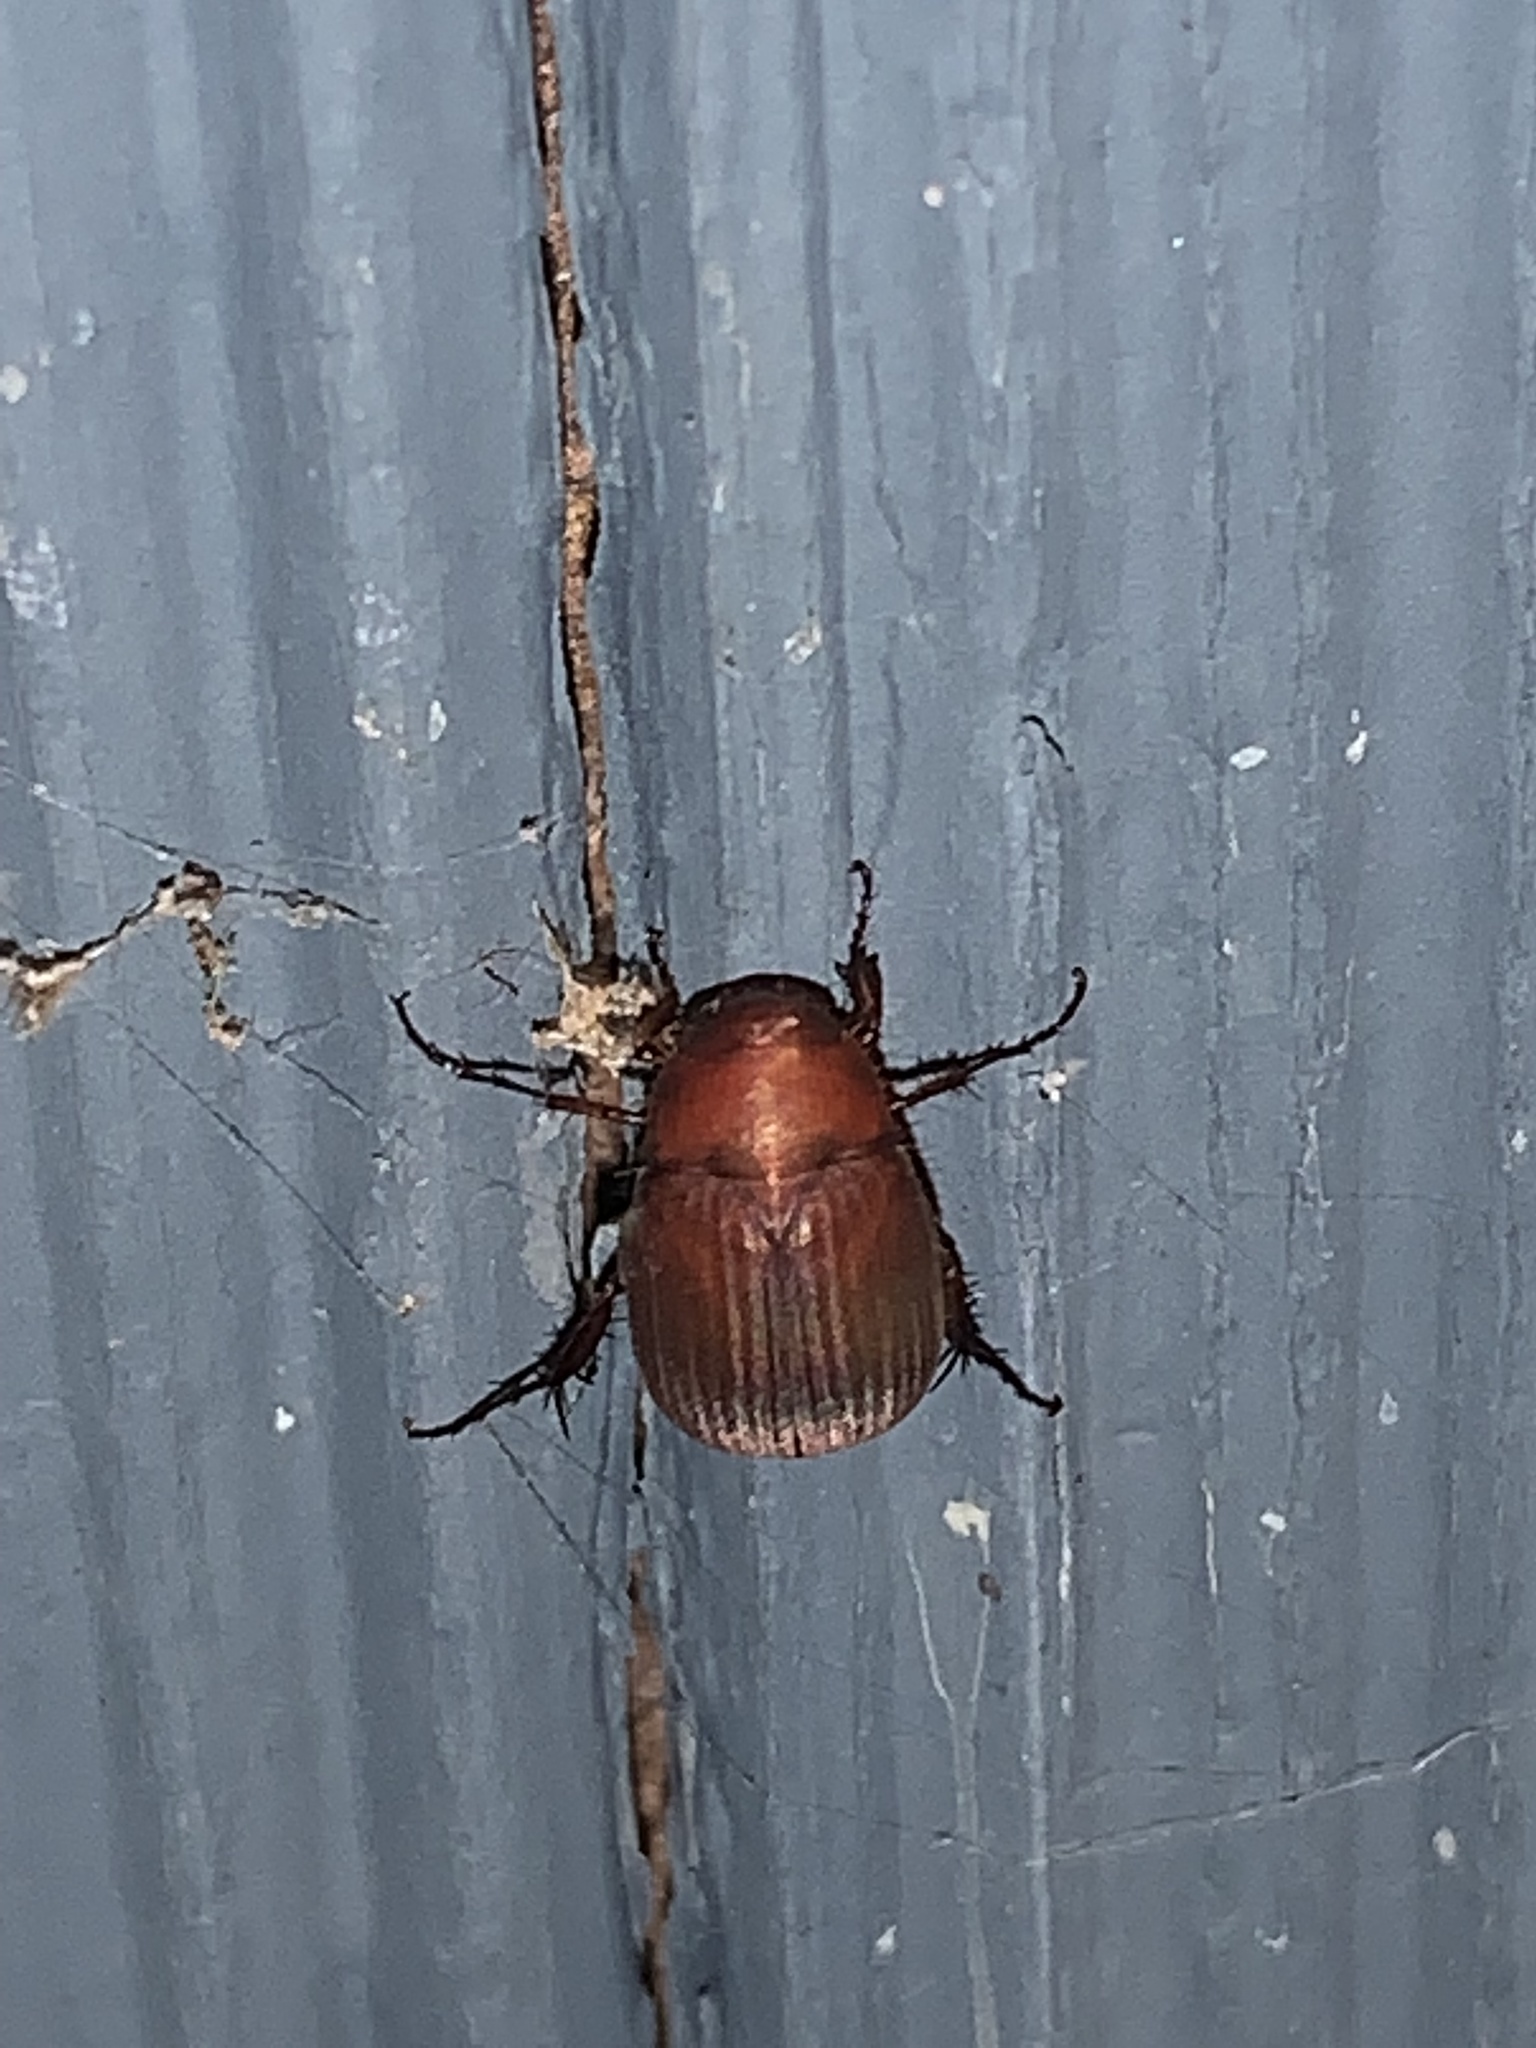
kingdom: Animalia
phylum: Arthropoda
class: Insecta
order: Coleoptera
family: Scarabaeidae
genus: Maladera
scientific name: Maladera formosae
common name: Asiatic garden beetle
